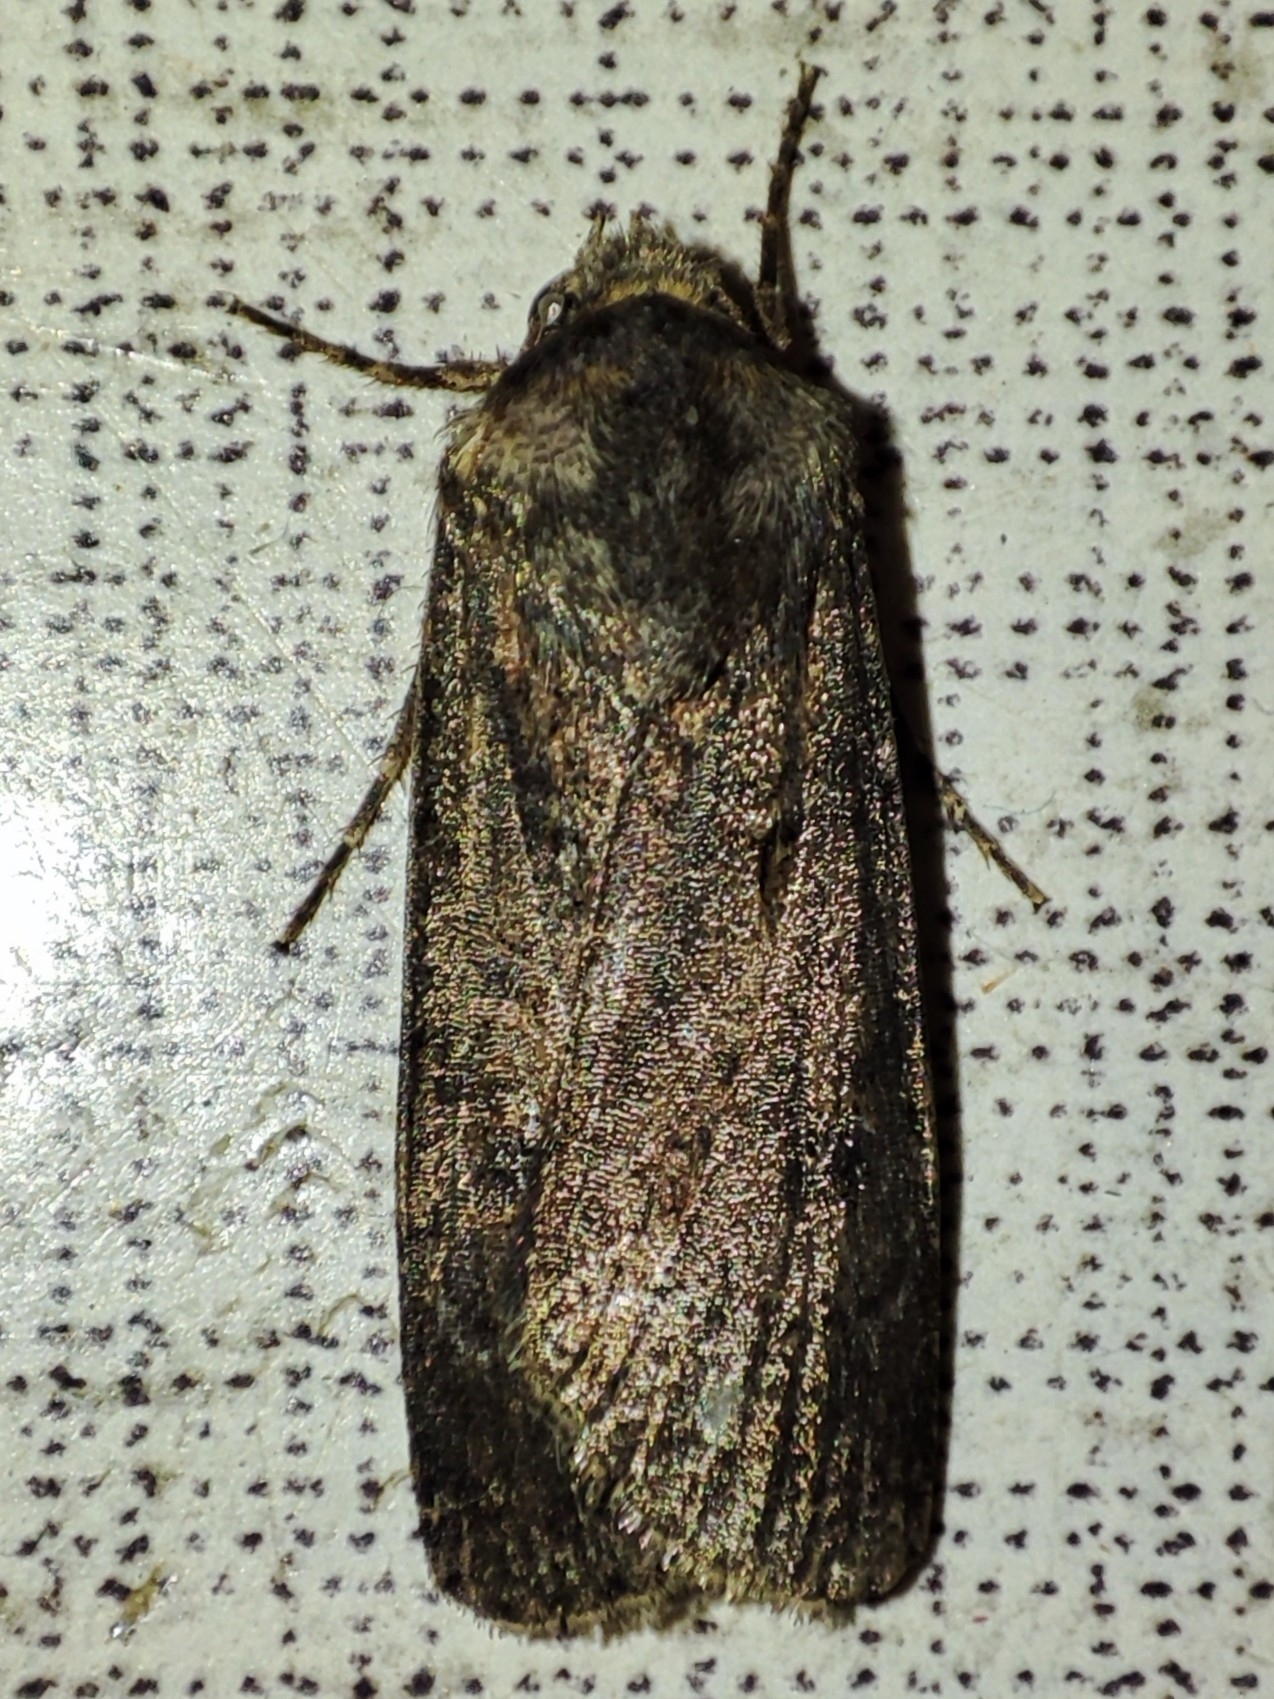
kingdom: Animalia
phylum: Arthropoda
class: Insecta
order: Lepidoptera
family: Noctuidae
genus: Agrotis
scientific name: Agrotis segetum
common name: Turnip moth
